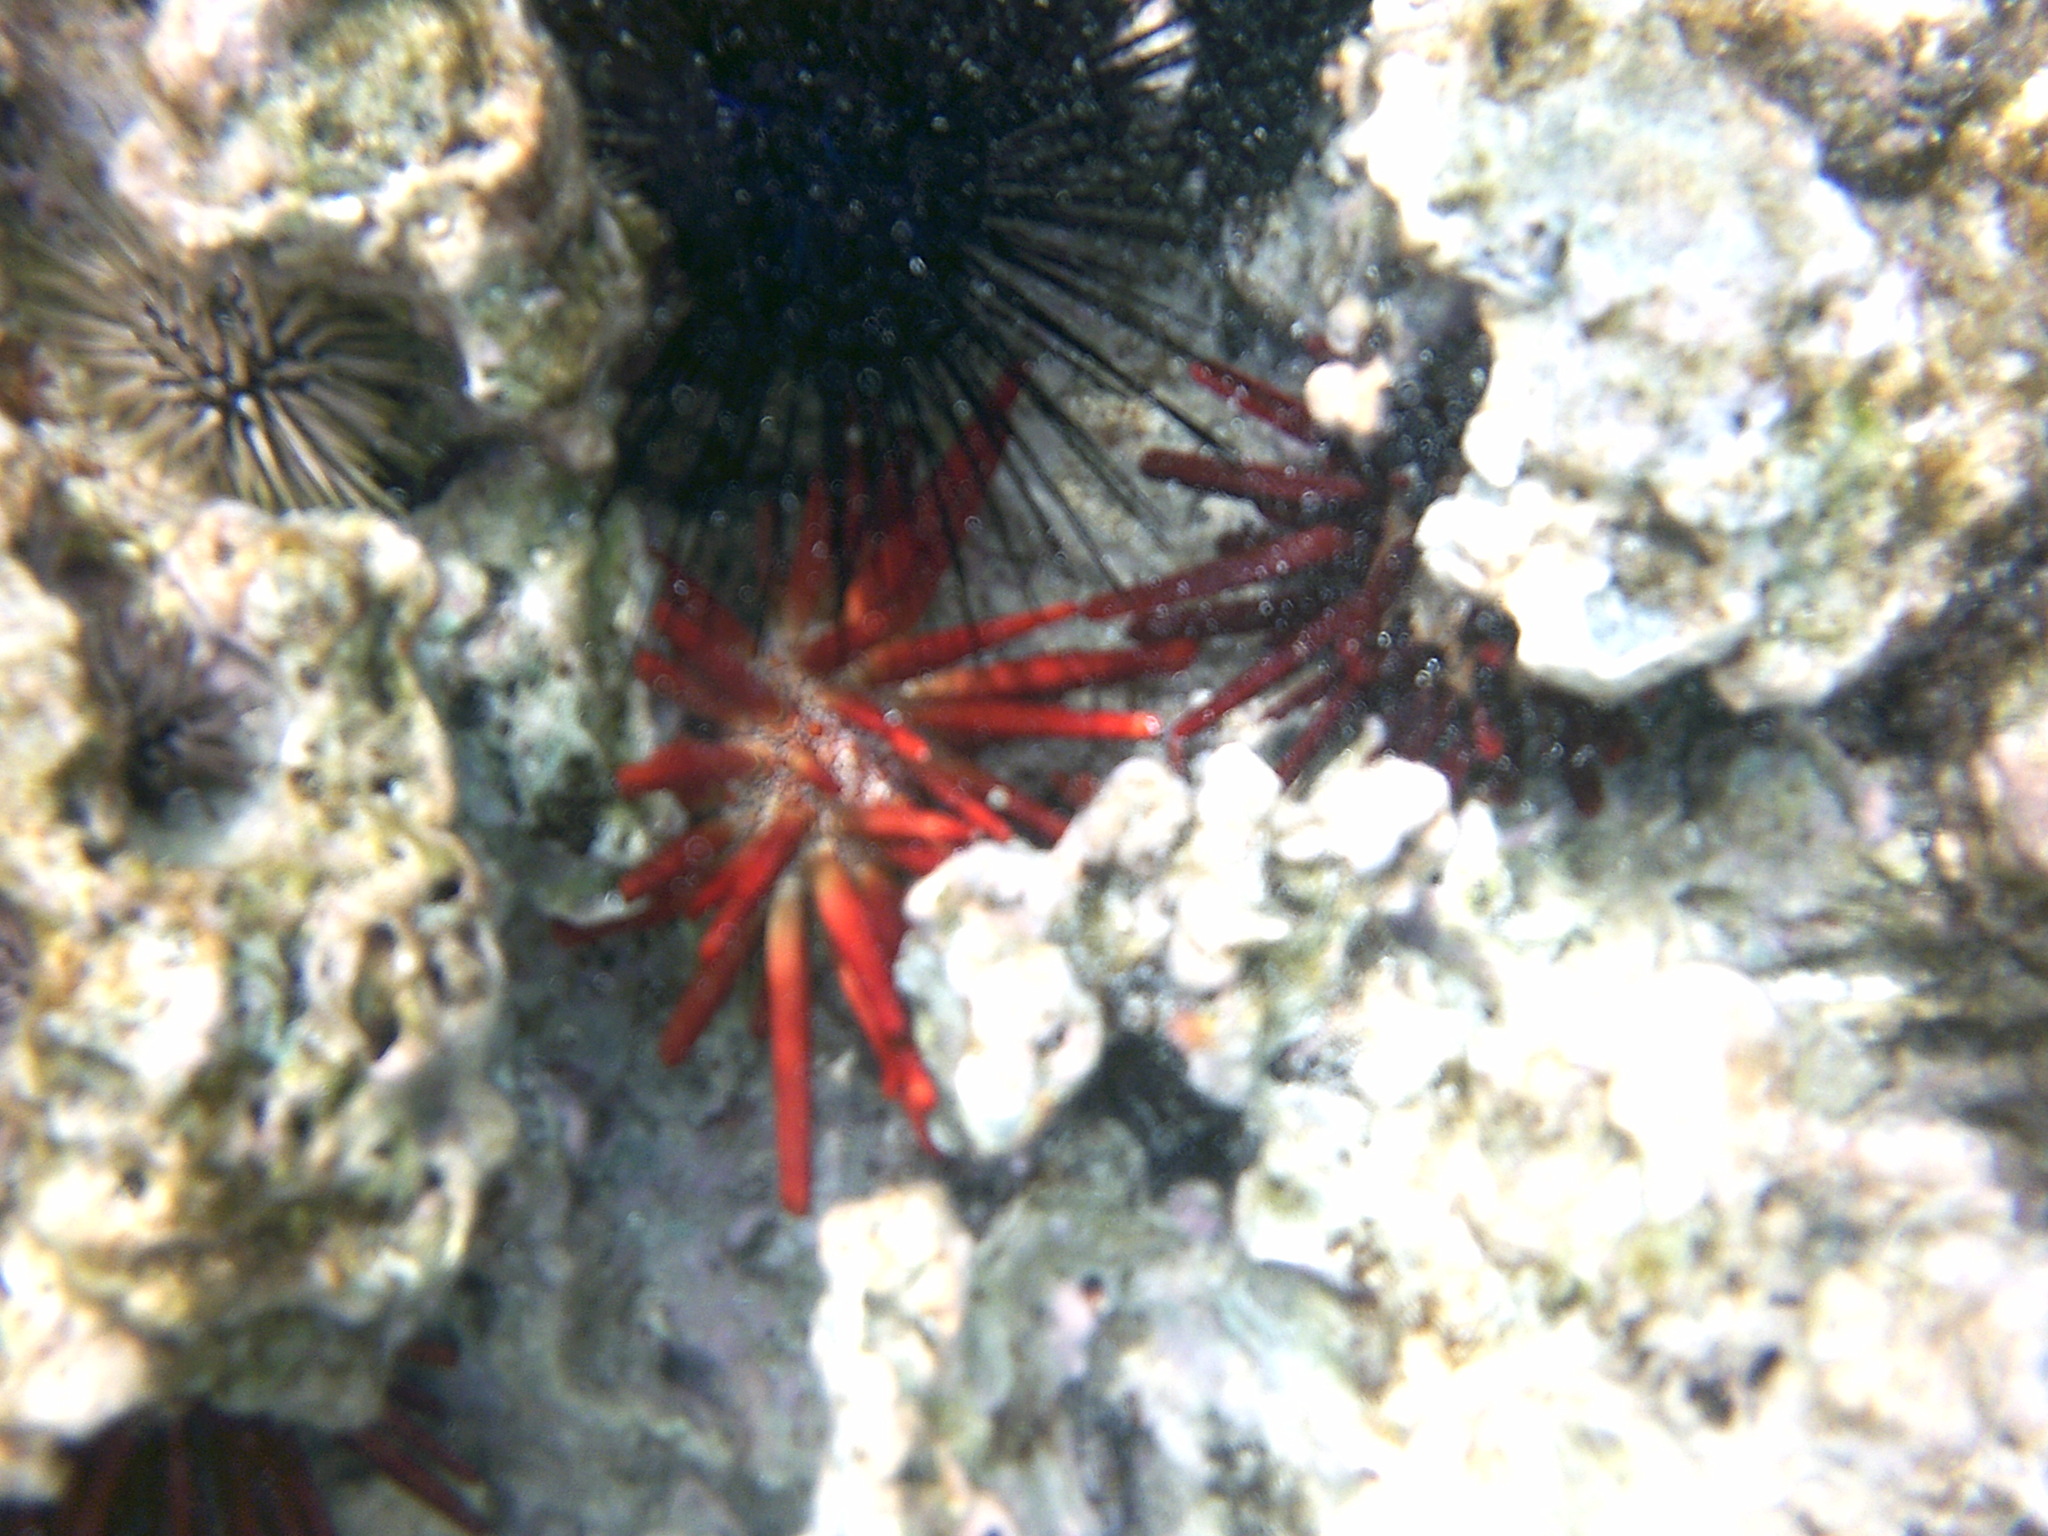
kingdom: Animalia
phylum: Echinodermata
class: Echinoidea
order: Camarodonta
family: Echinometridae
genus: Heterocentrotus
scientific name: Heterocentrotus mamillatus
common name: Slate pencil urchin
